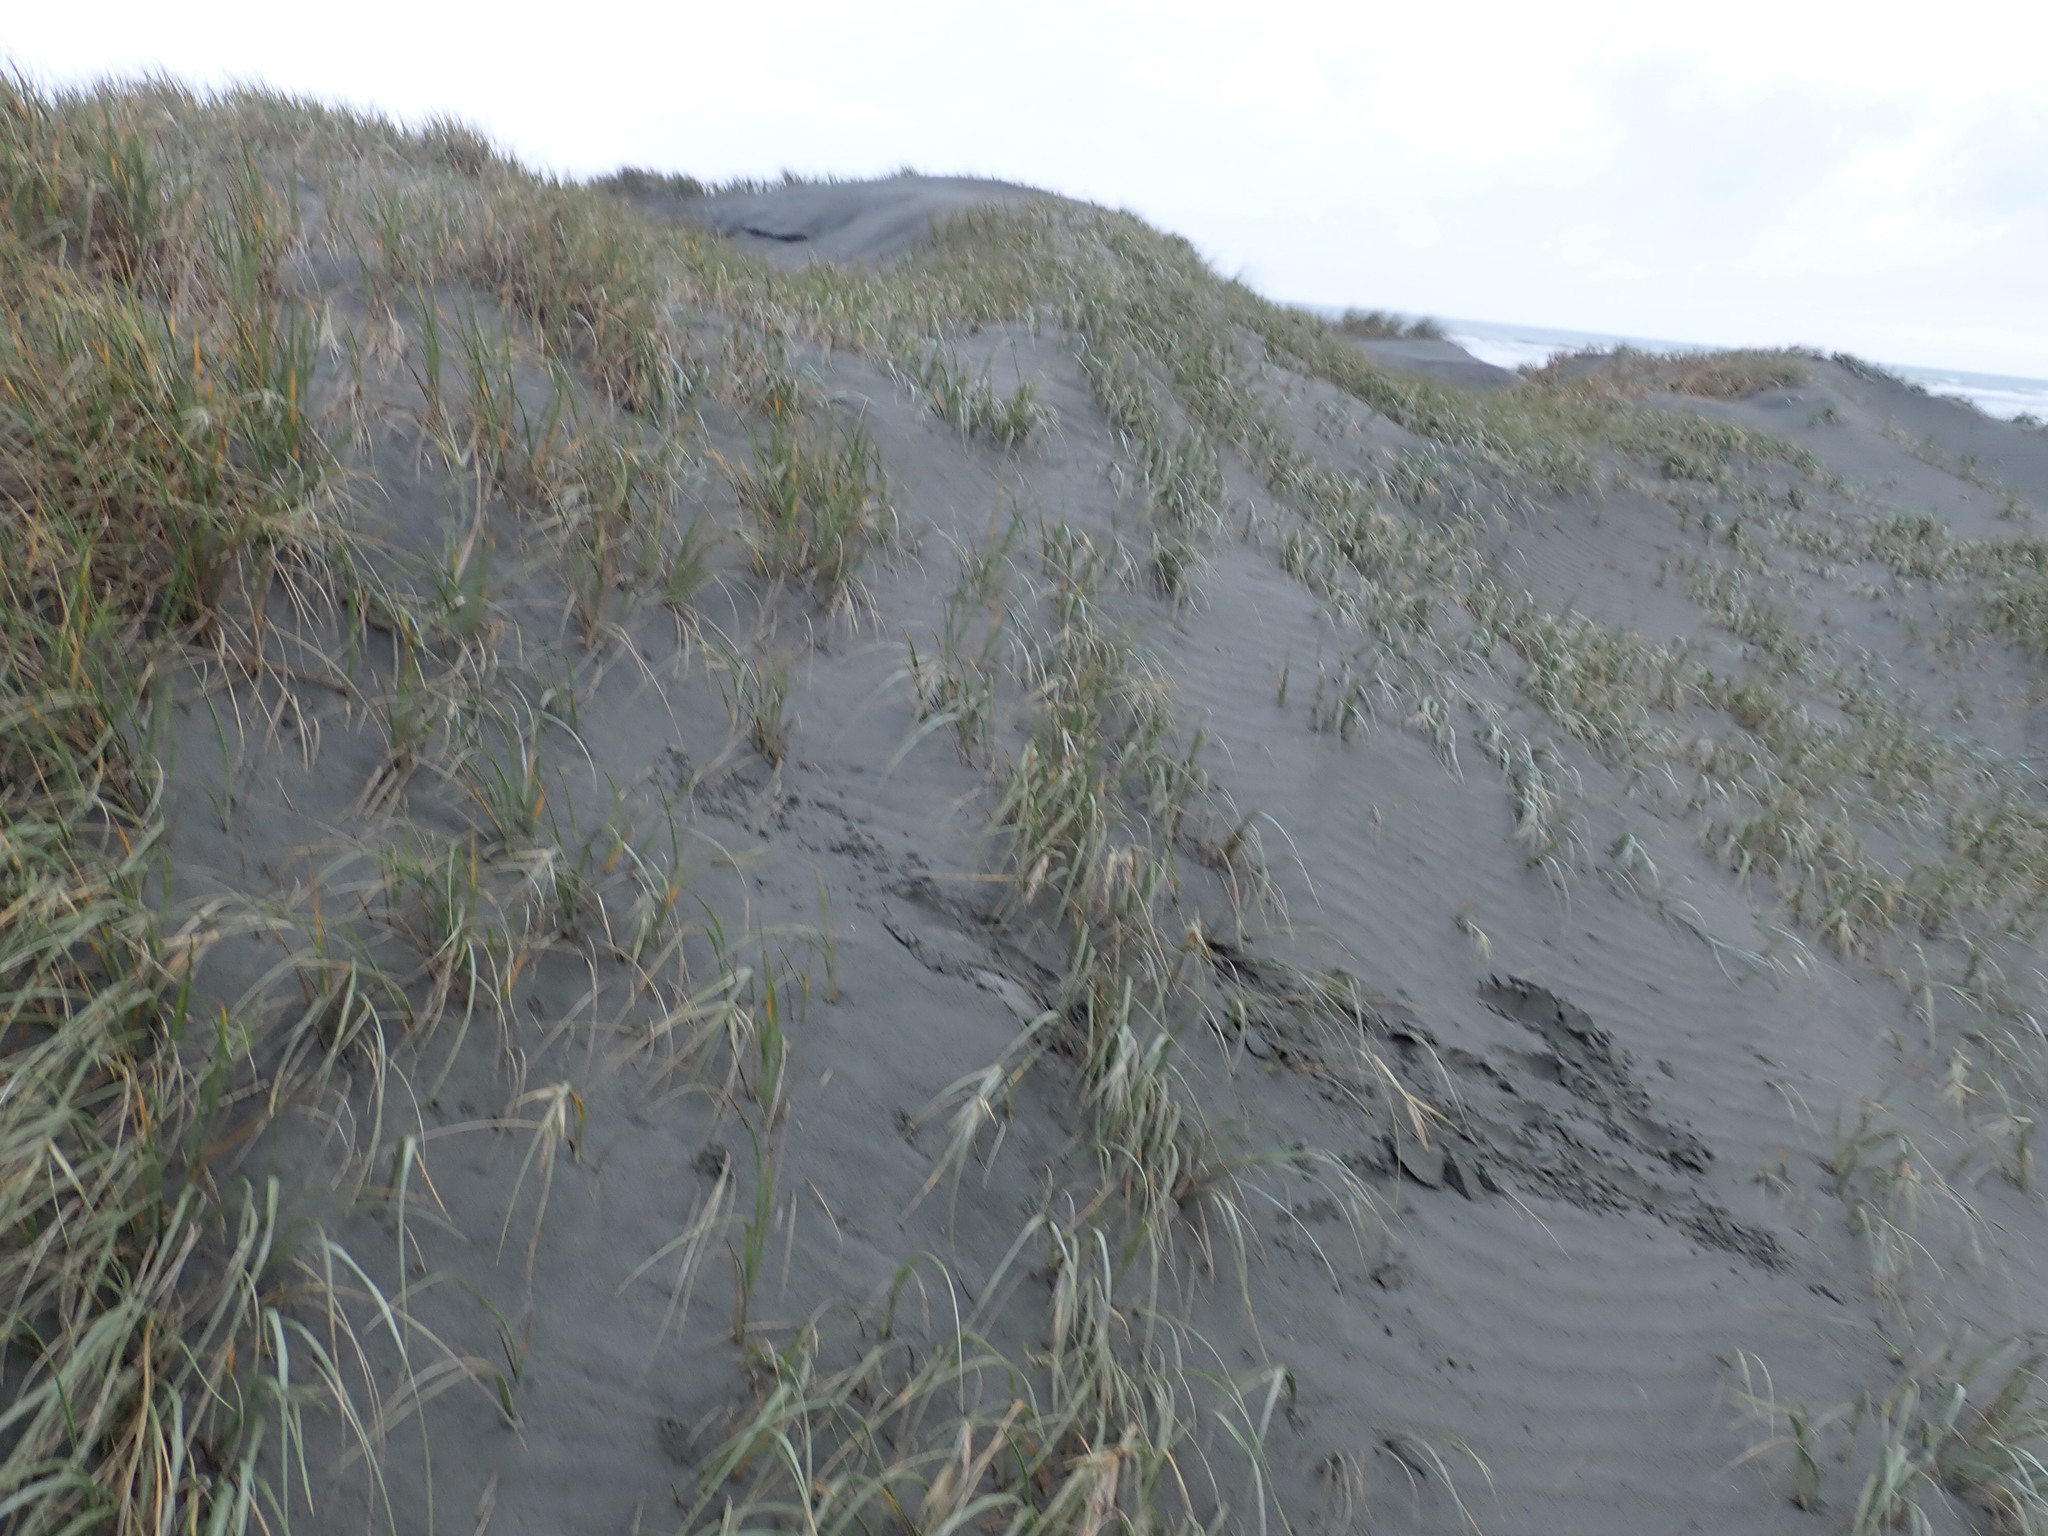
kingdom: Plantae
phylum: Tracheophyta
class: Liliopsida
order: Poales
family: Poaceae
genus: Spinifex
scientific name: Spinifex sericeus
